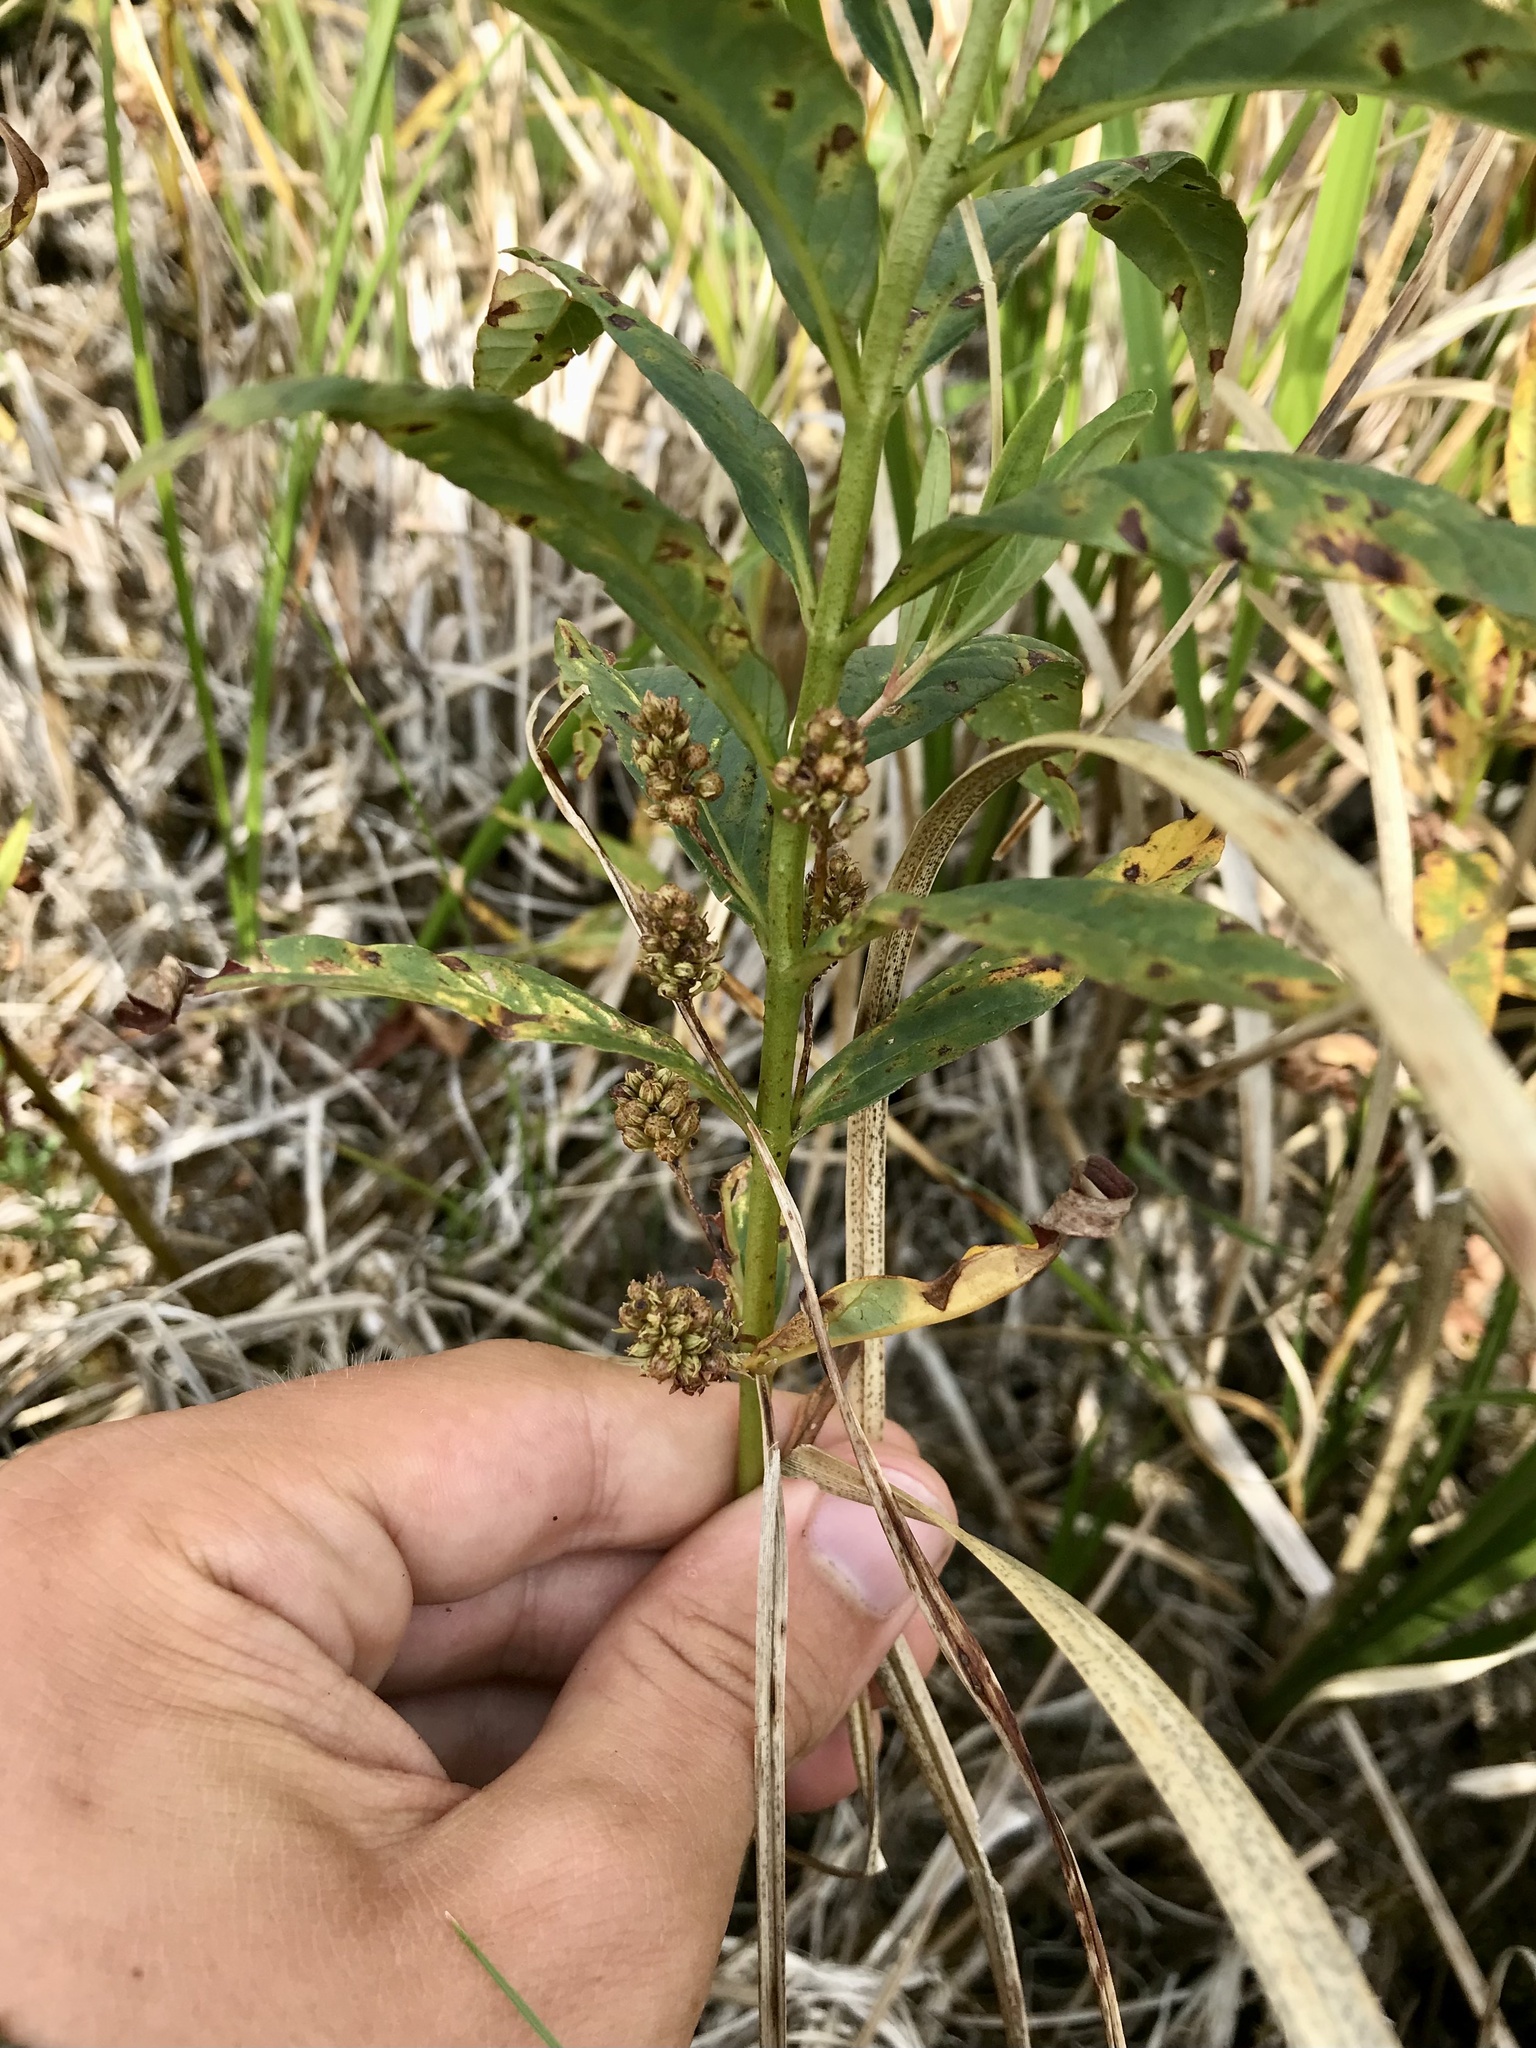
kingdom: Plantae
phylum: Tracheophyta
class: Magnoliopsida
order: Ericales
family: Primulaceae
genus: Lysimachia
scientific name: Lysimachia thyrsiflora
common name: Tufted loosestrife
